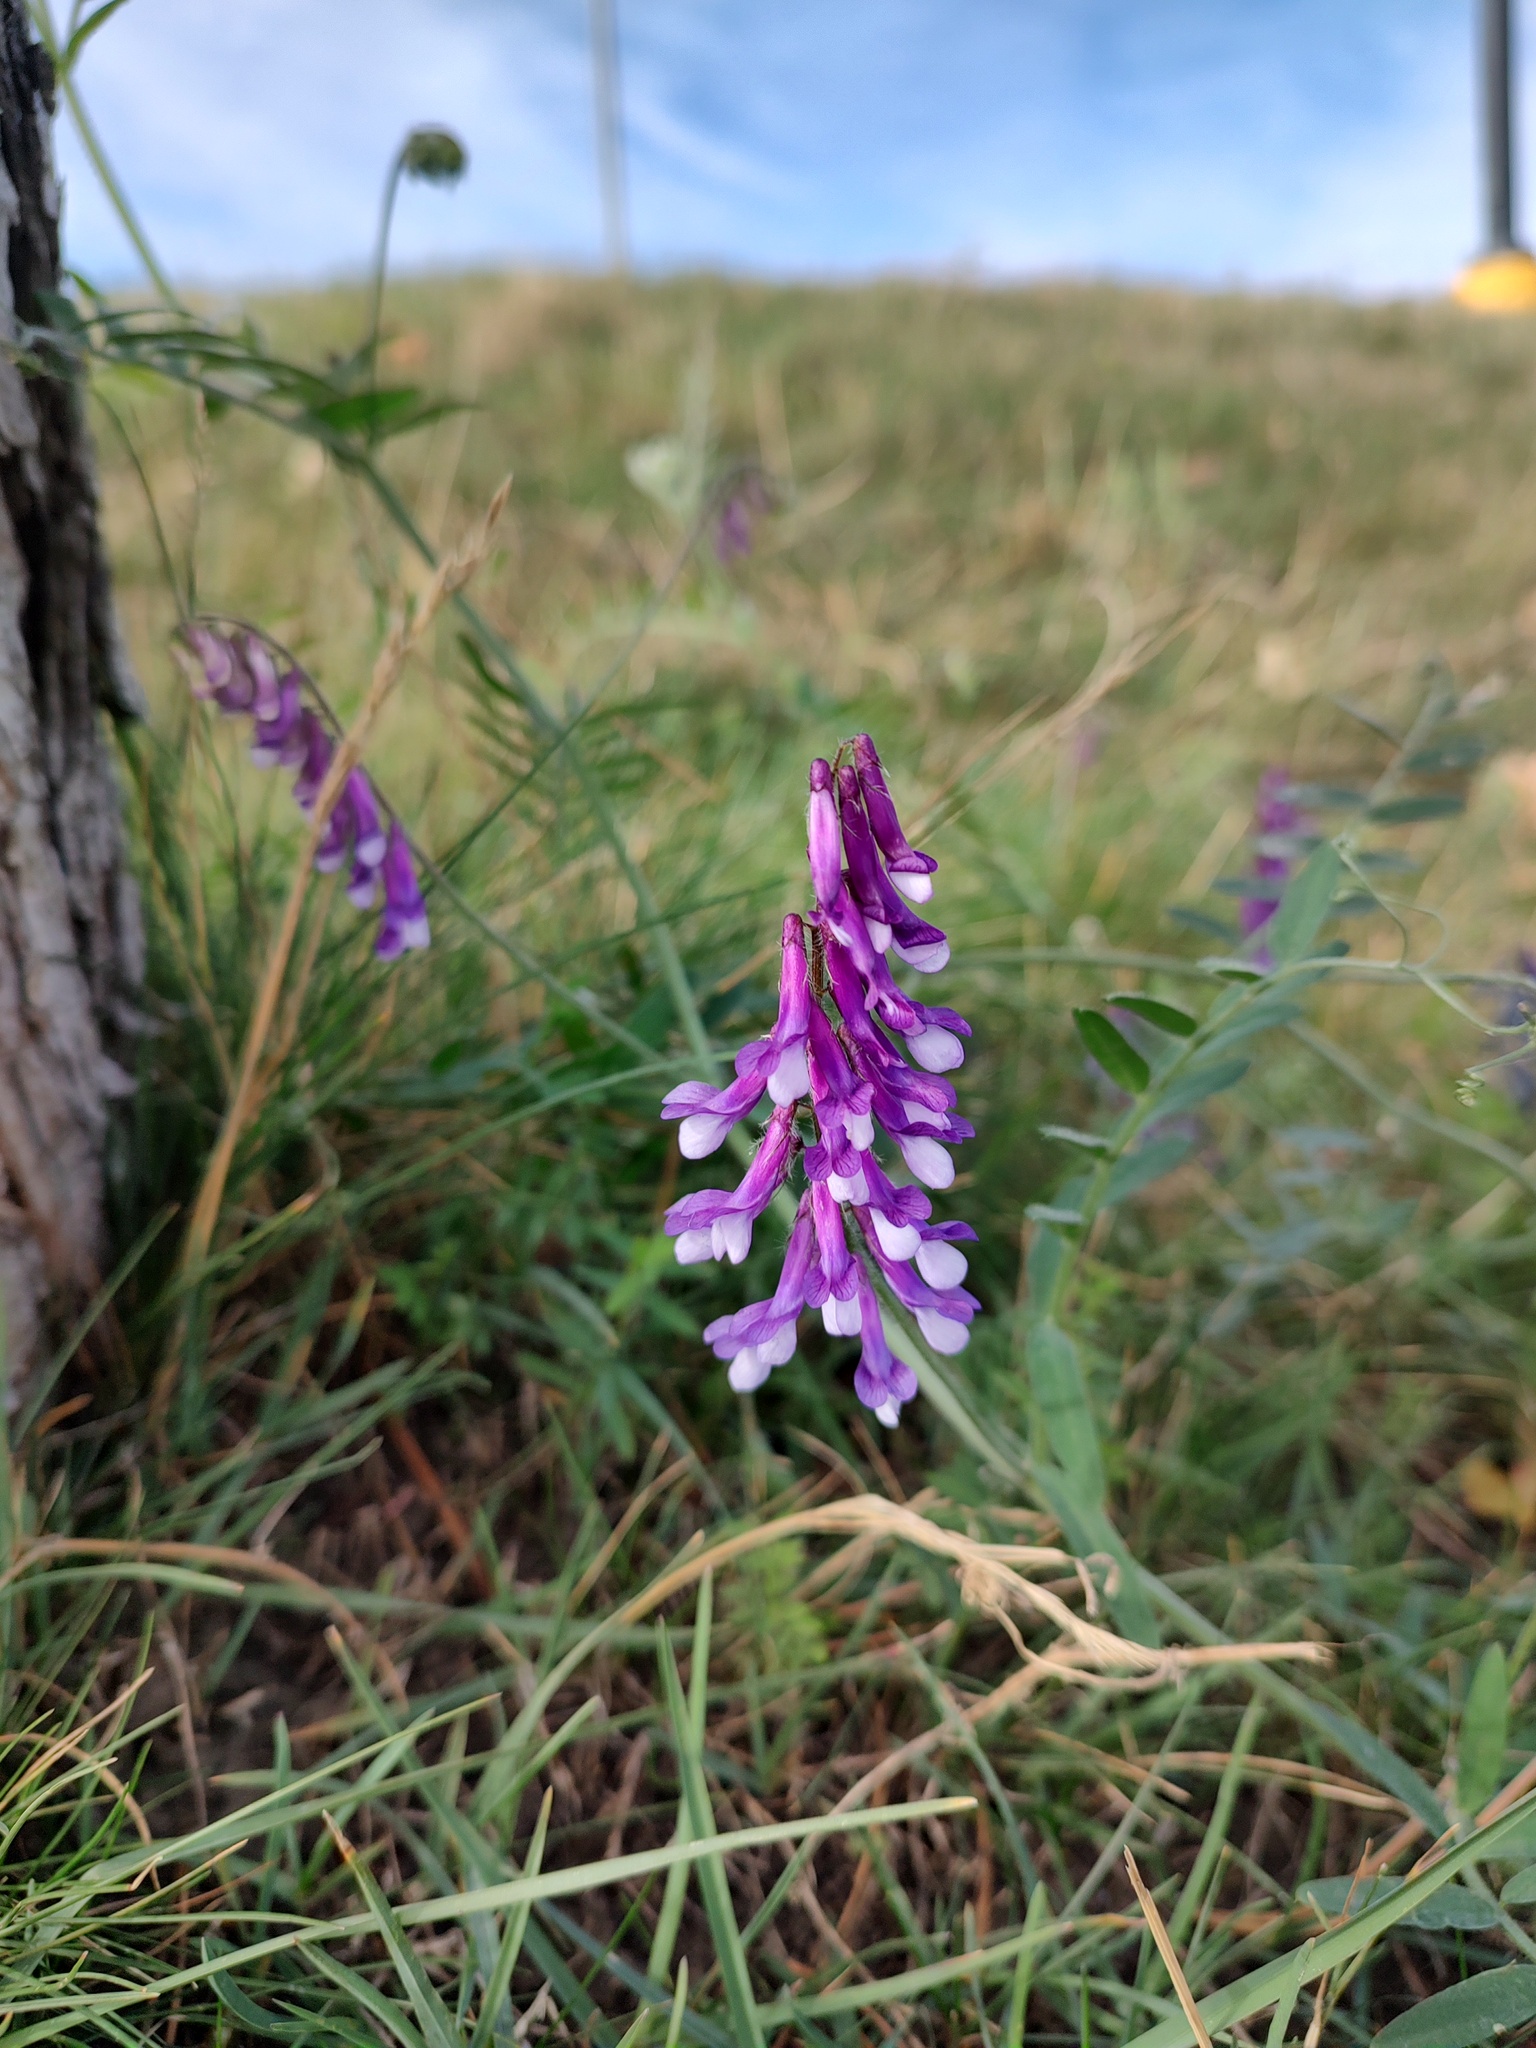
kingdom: Plantae
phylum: Tracheophyta
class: Magnoliopsida
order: Fabales
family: Fabaceae
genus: Vicia
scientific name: Vicia villosa
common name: Fodder vetch
